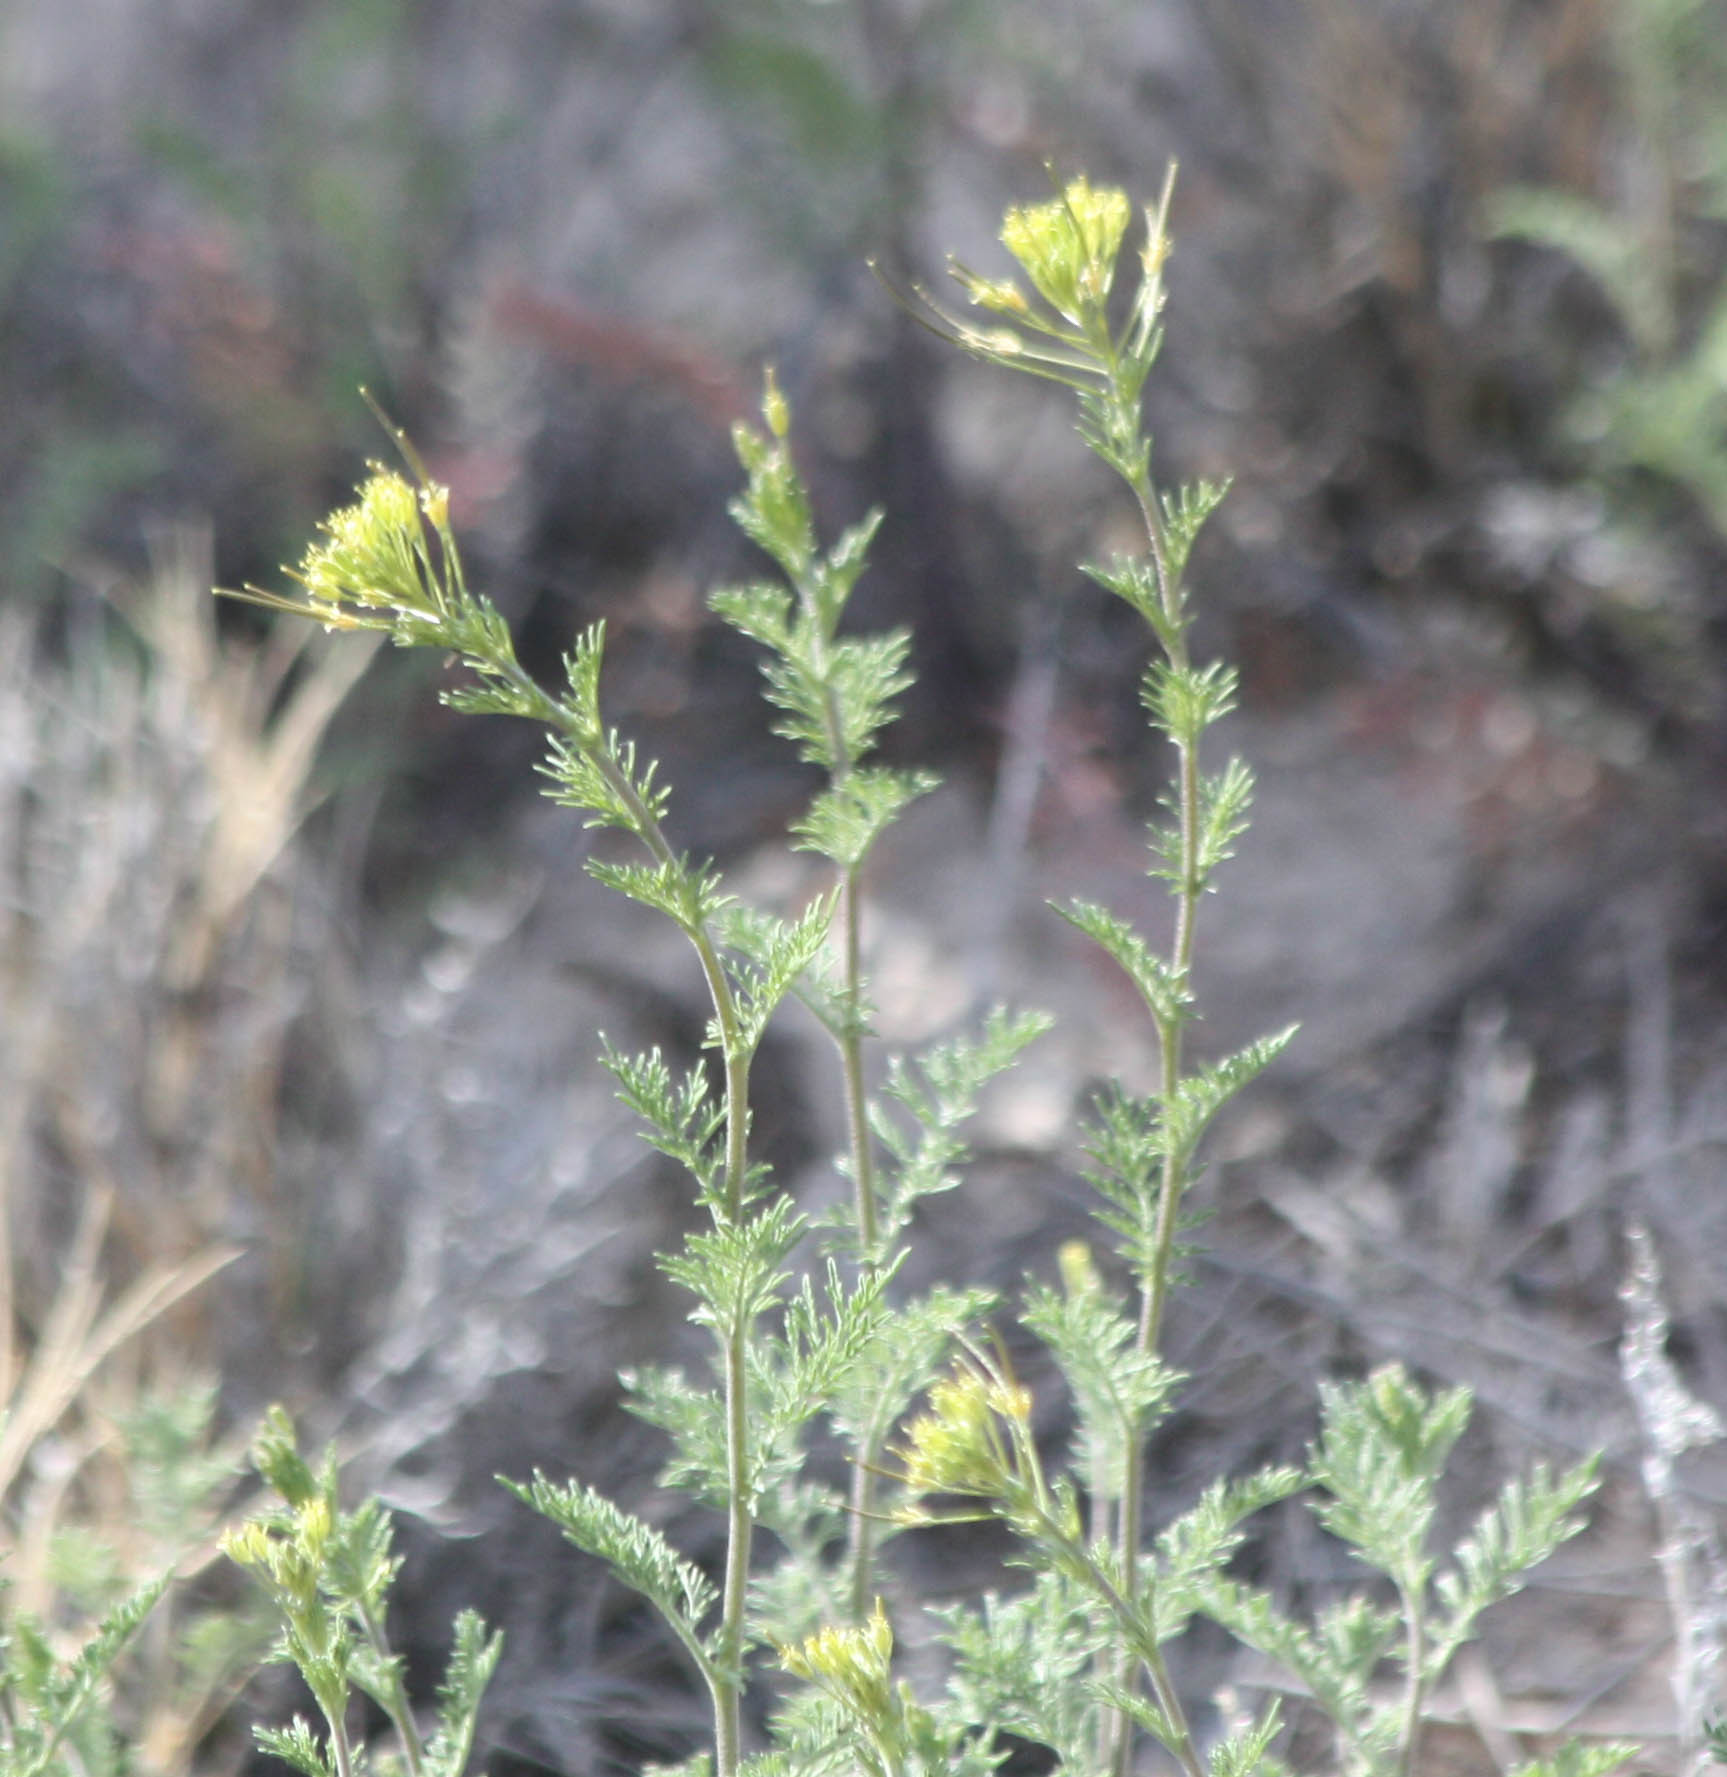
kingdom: Plantae
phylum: Tracheophyta
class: Magnoliopsida
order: Brassicales
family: Brassicaceae
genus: Descurainia
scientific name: Descurainia sophia
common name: Flixweed
